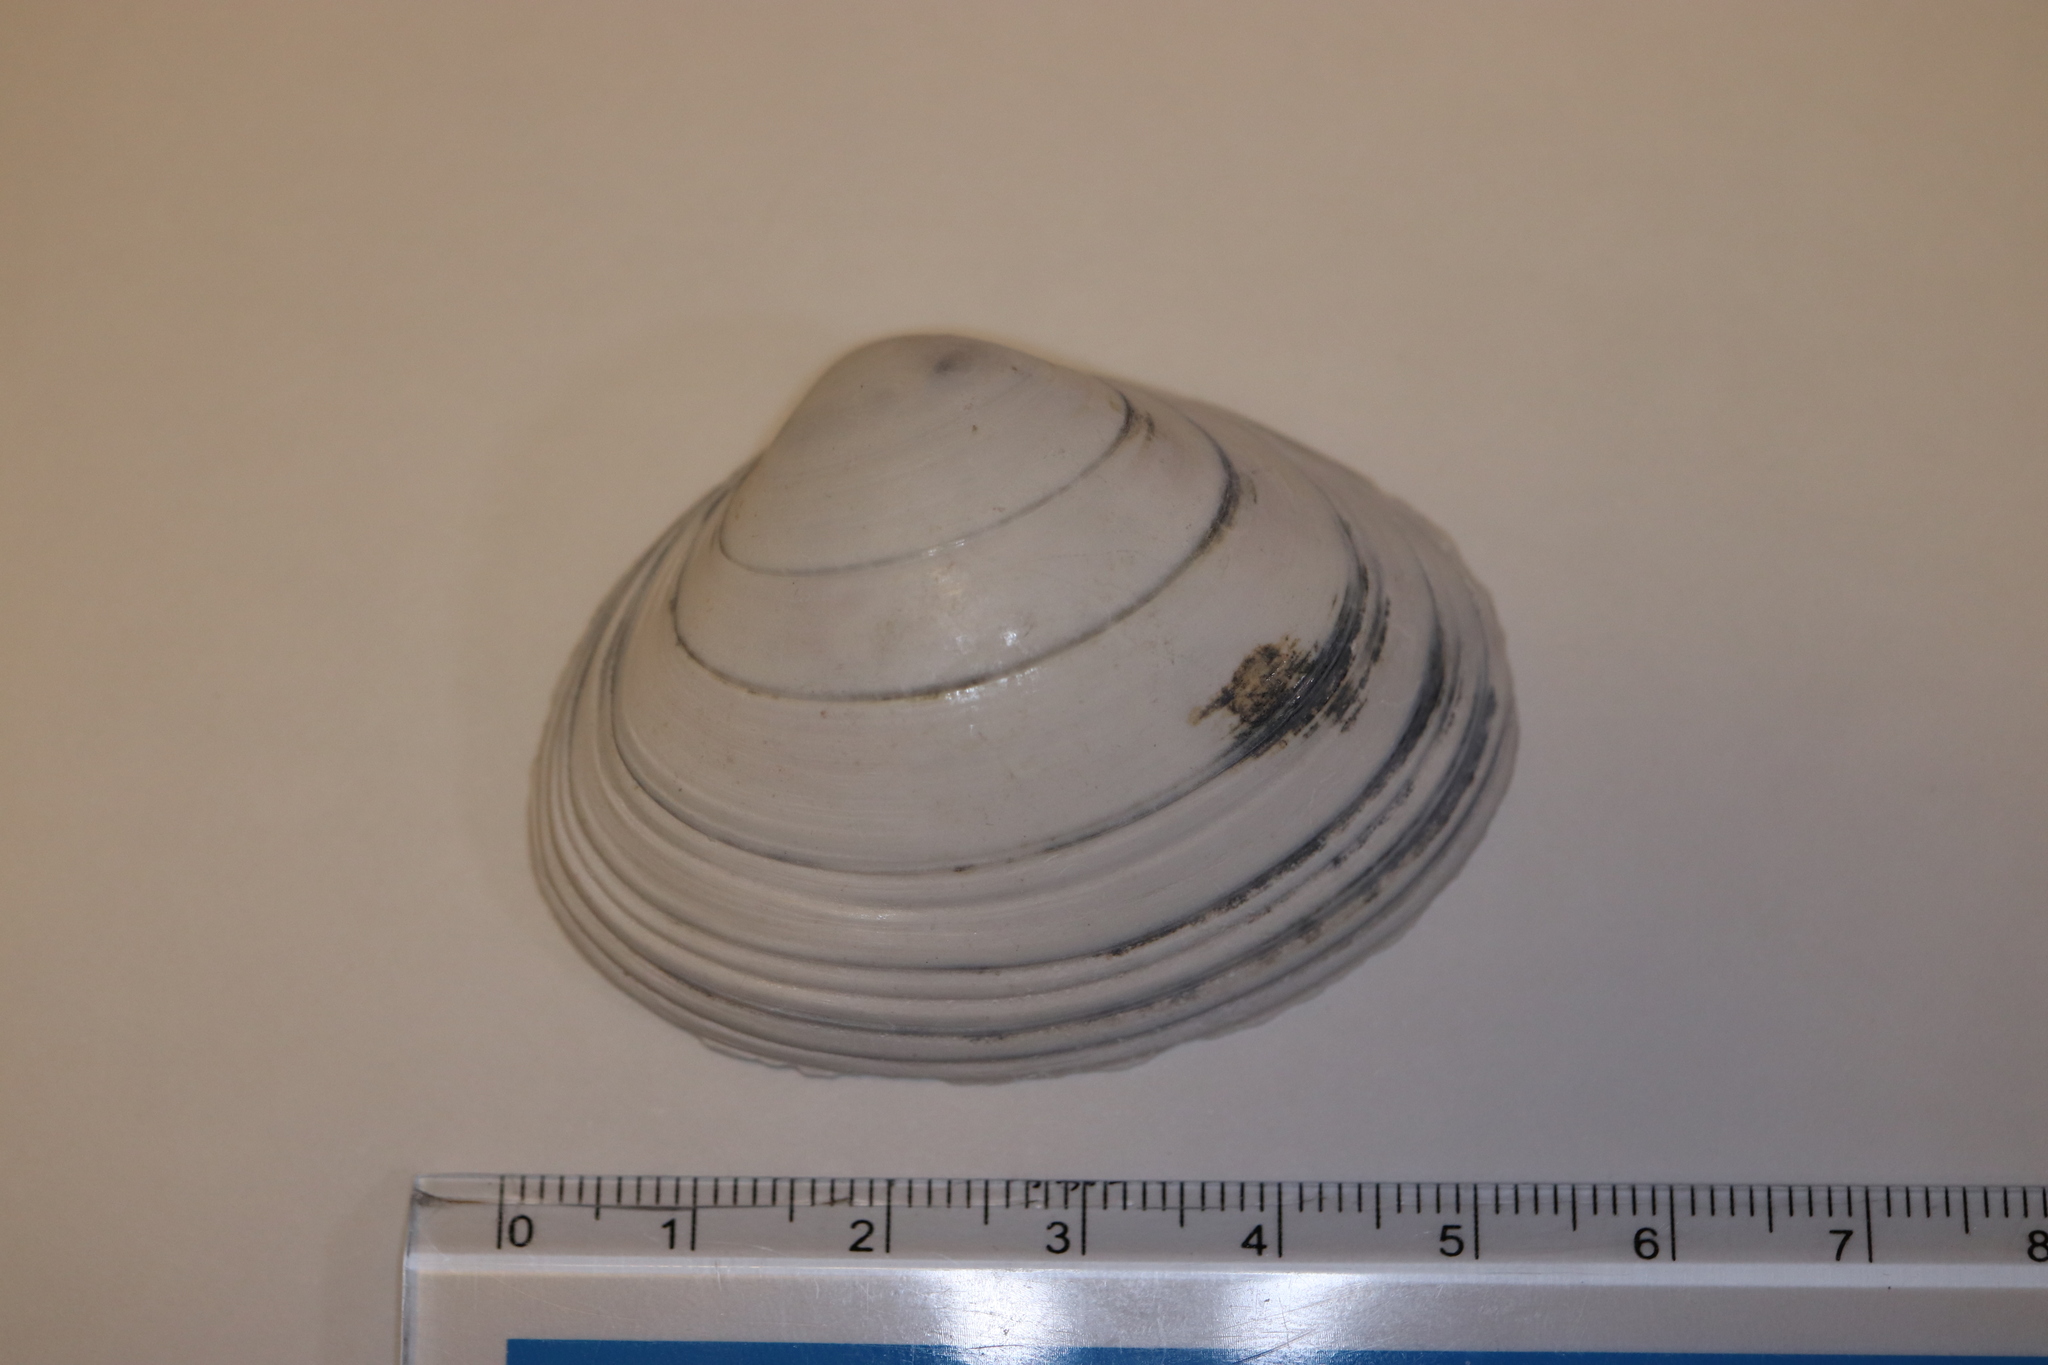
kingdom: Animalia
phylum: Mollusca
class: Bivalvia
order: Venerida
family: Mactridae
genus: Mactra
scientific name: Mactra chinensis
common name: Chinese surf clam
